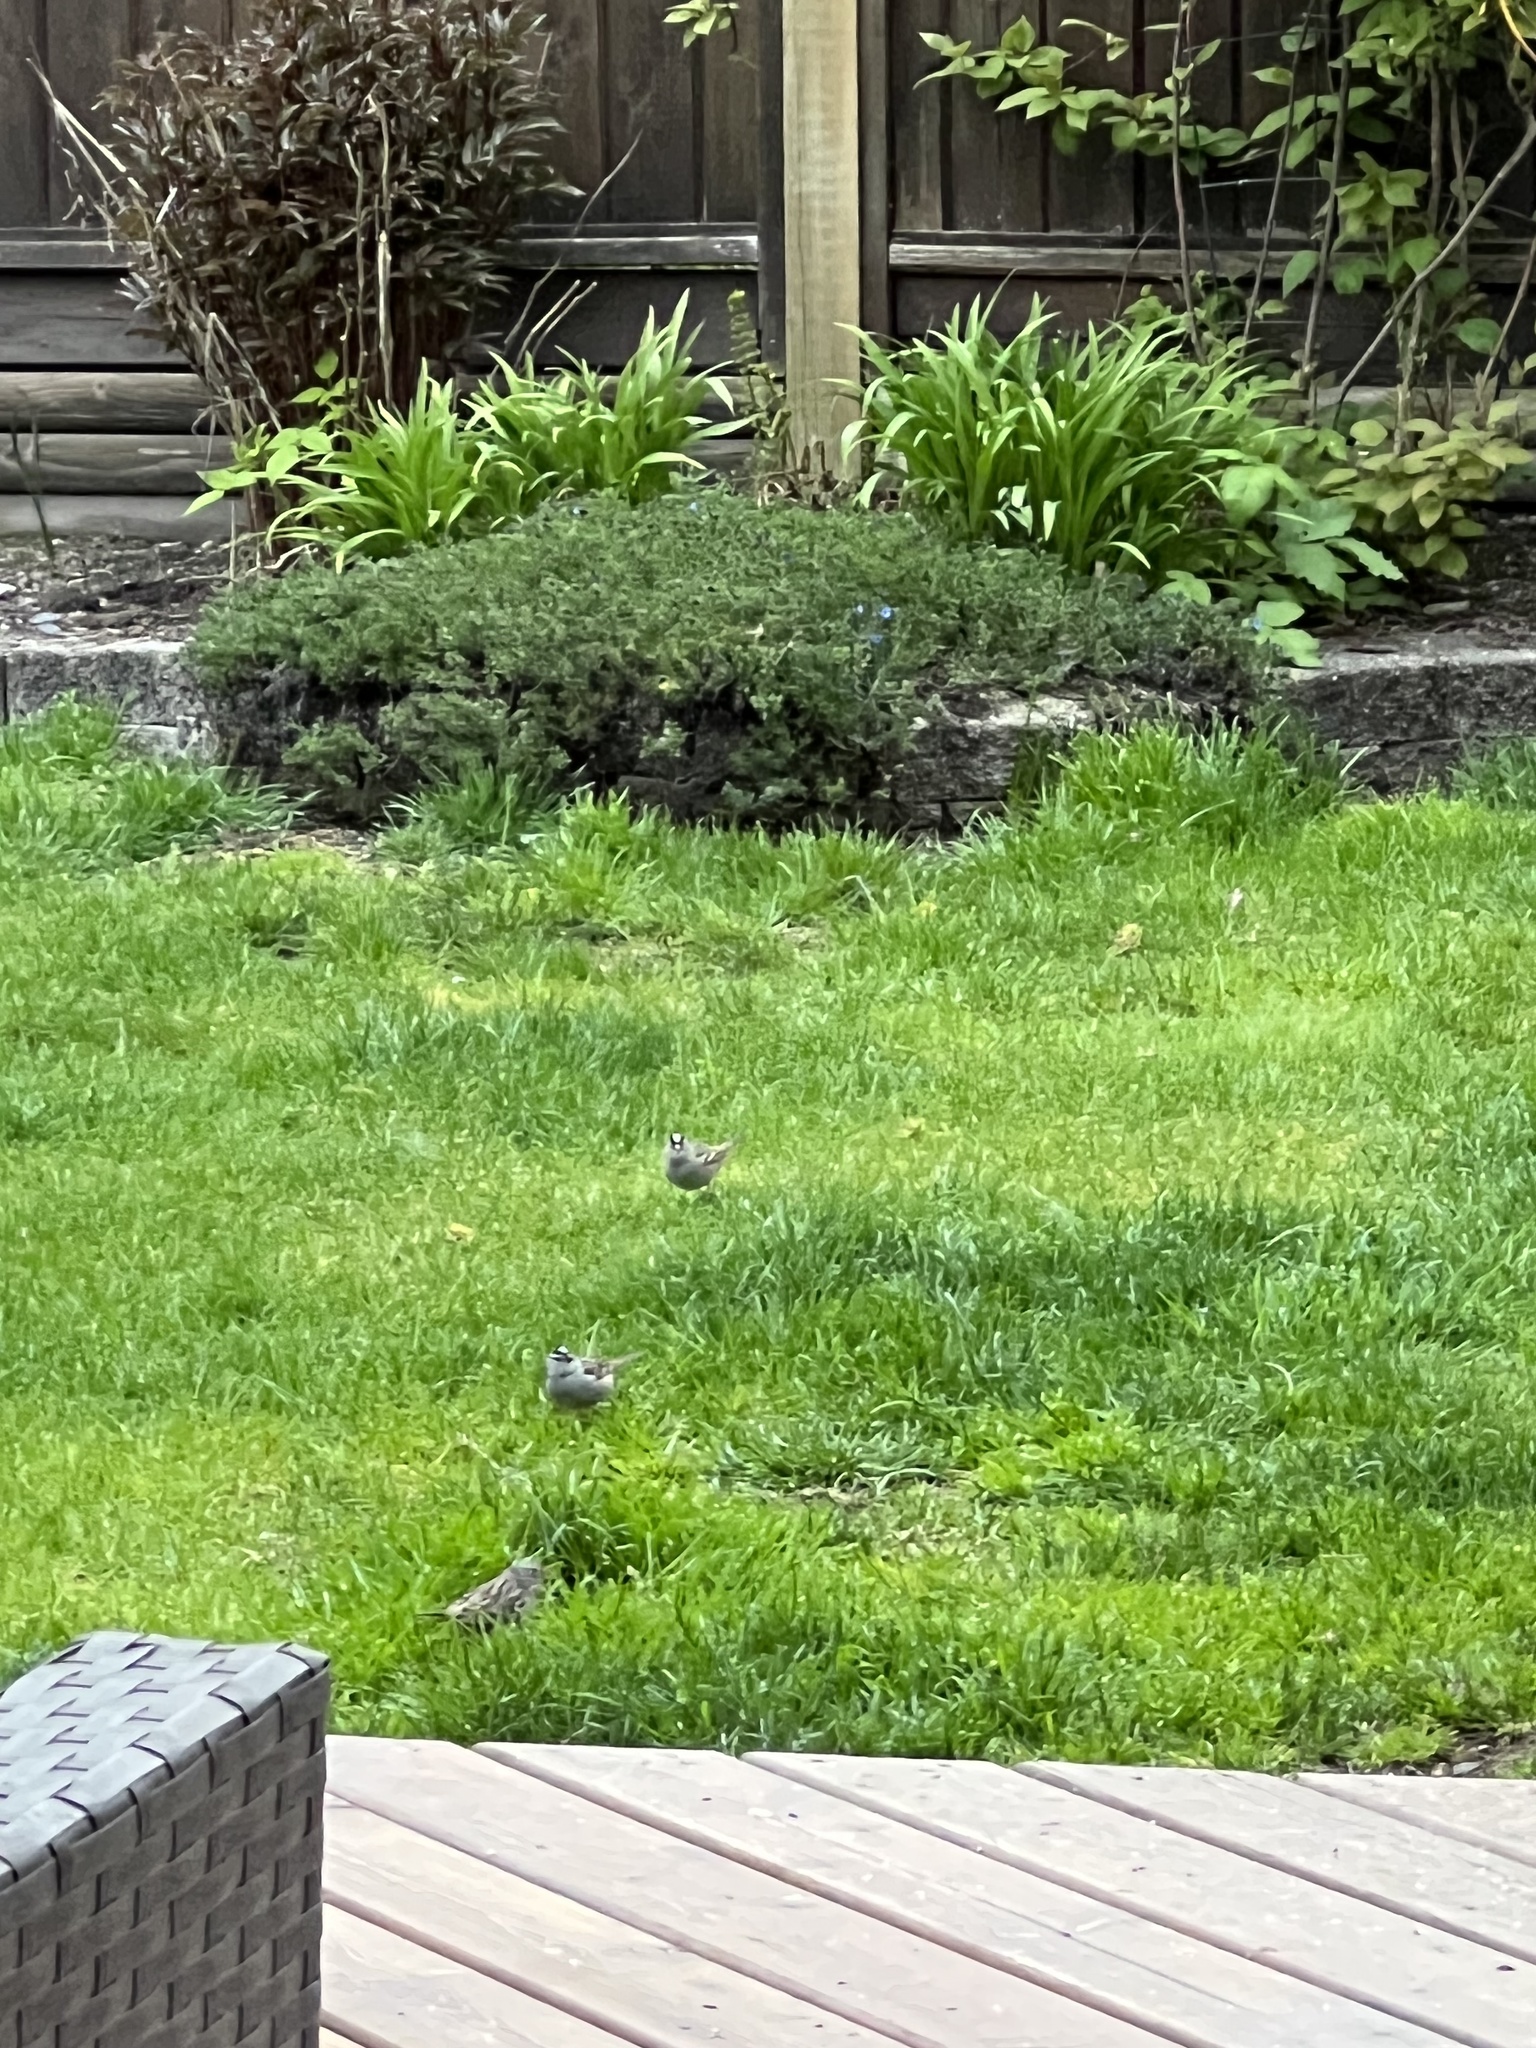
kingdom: Animalia
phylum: Chordata
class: Aves
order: Passeriformes
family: Passerellidae
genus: Zonotrichia
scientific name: Zonotrichia leucophrys
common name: White-crowned sparrow
